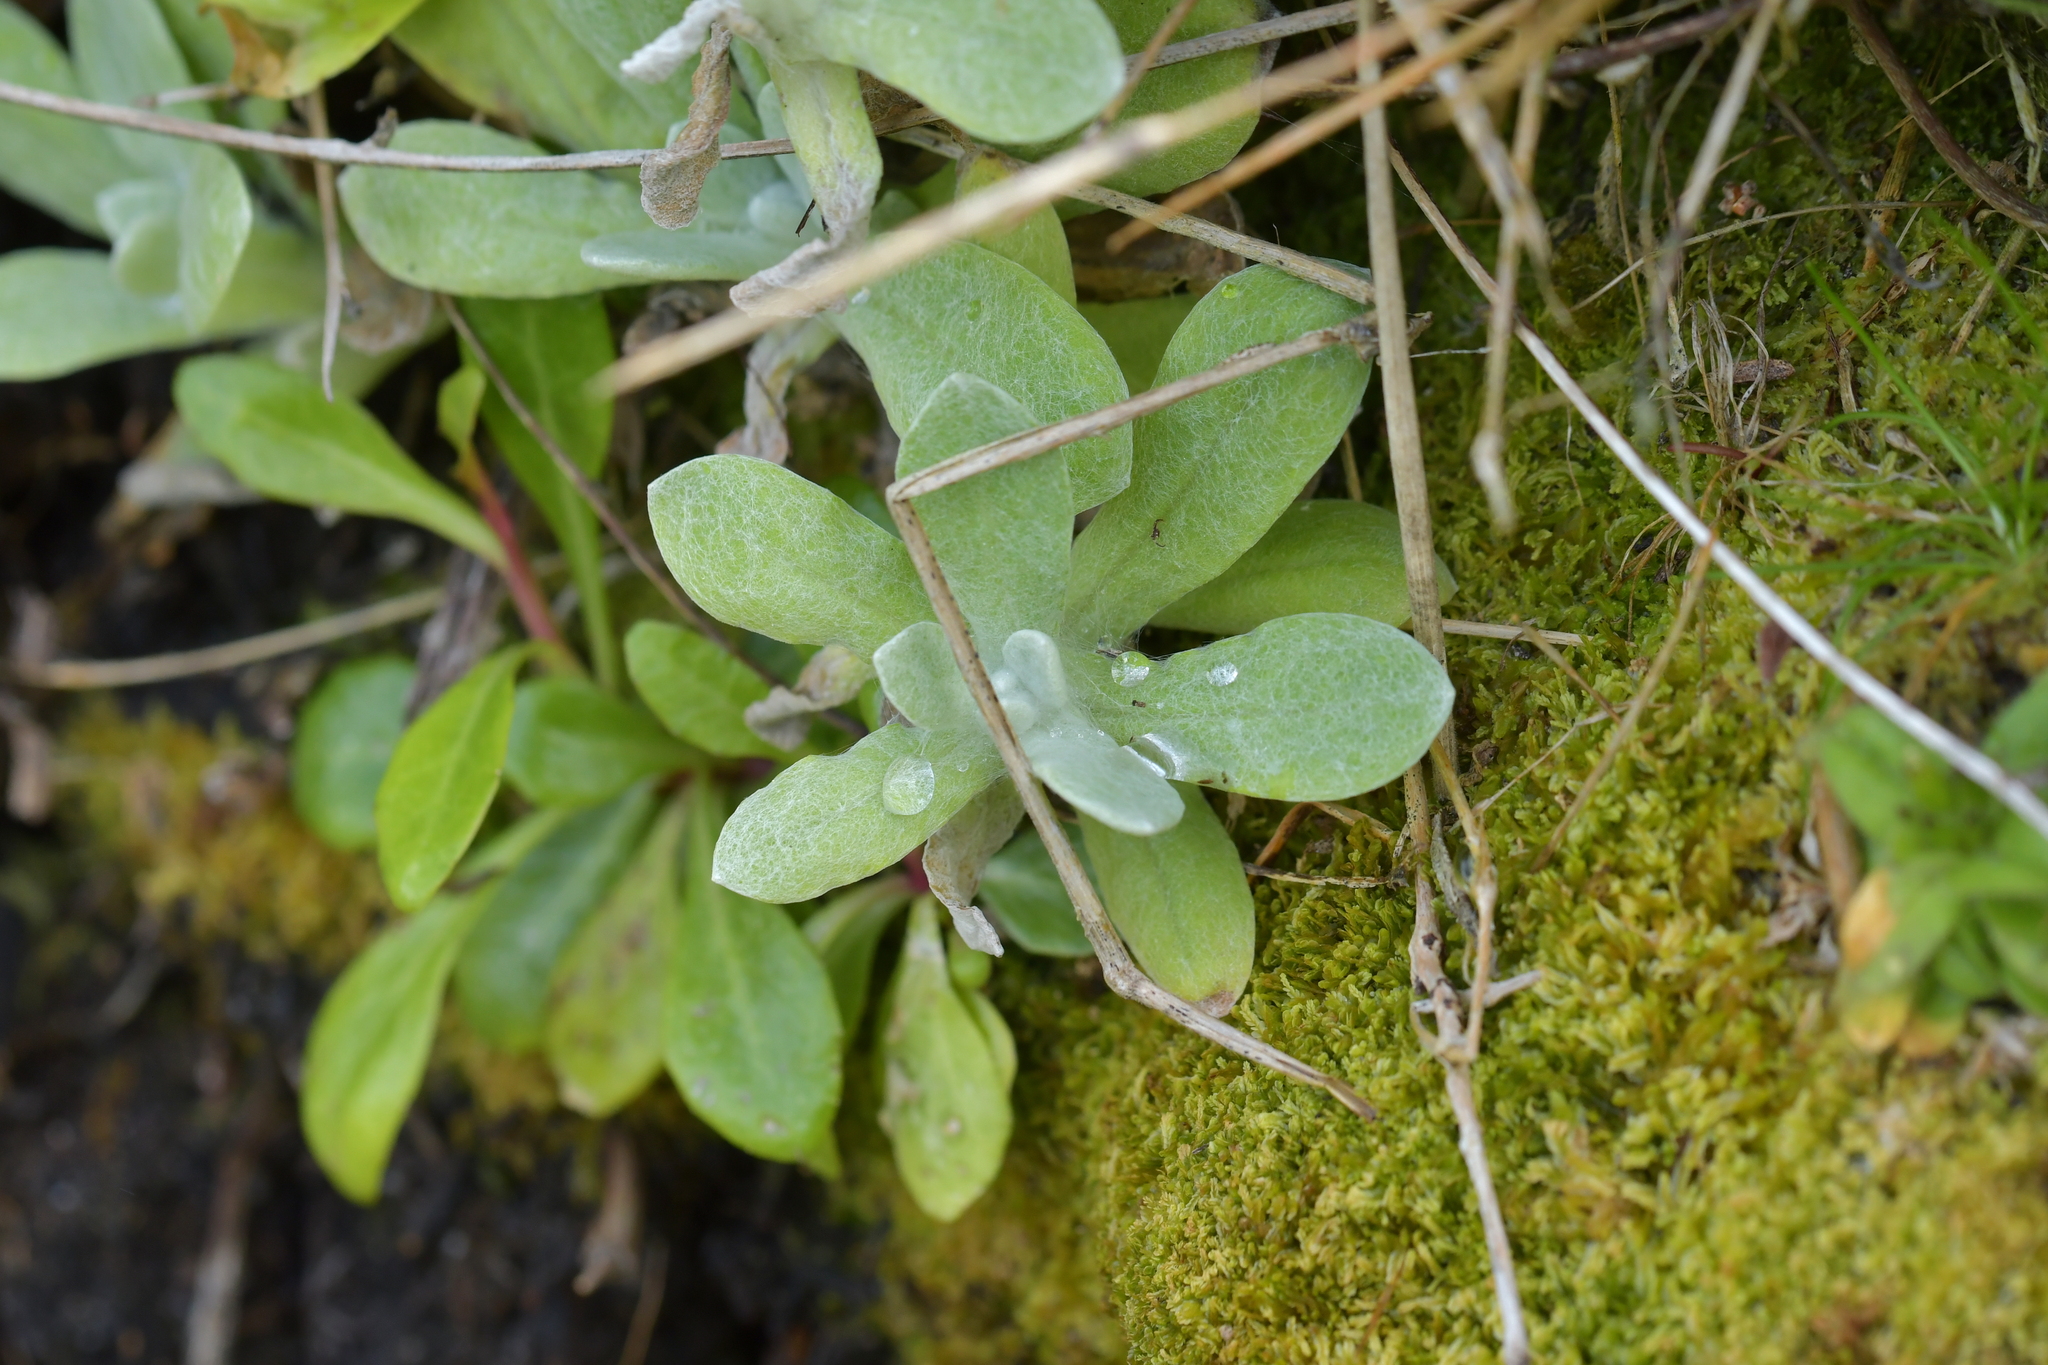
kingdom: Plantae
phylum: Tracheophyta
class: Magnoliopsida
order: Asterales
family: Asteraceae
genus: Pseudognaphalium
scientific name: Pseudognaphalium
